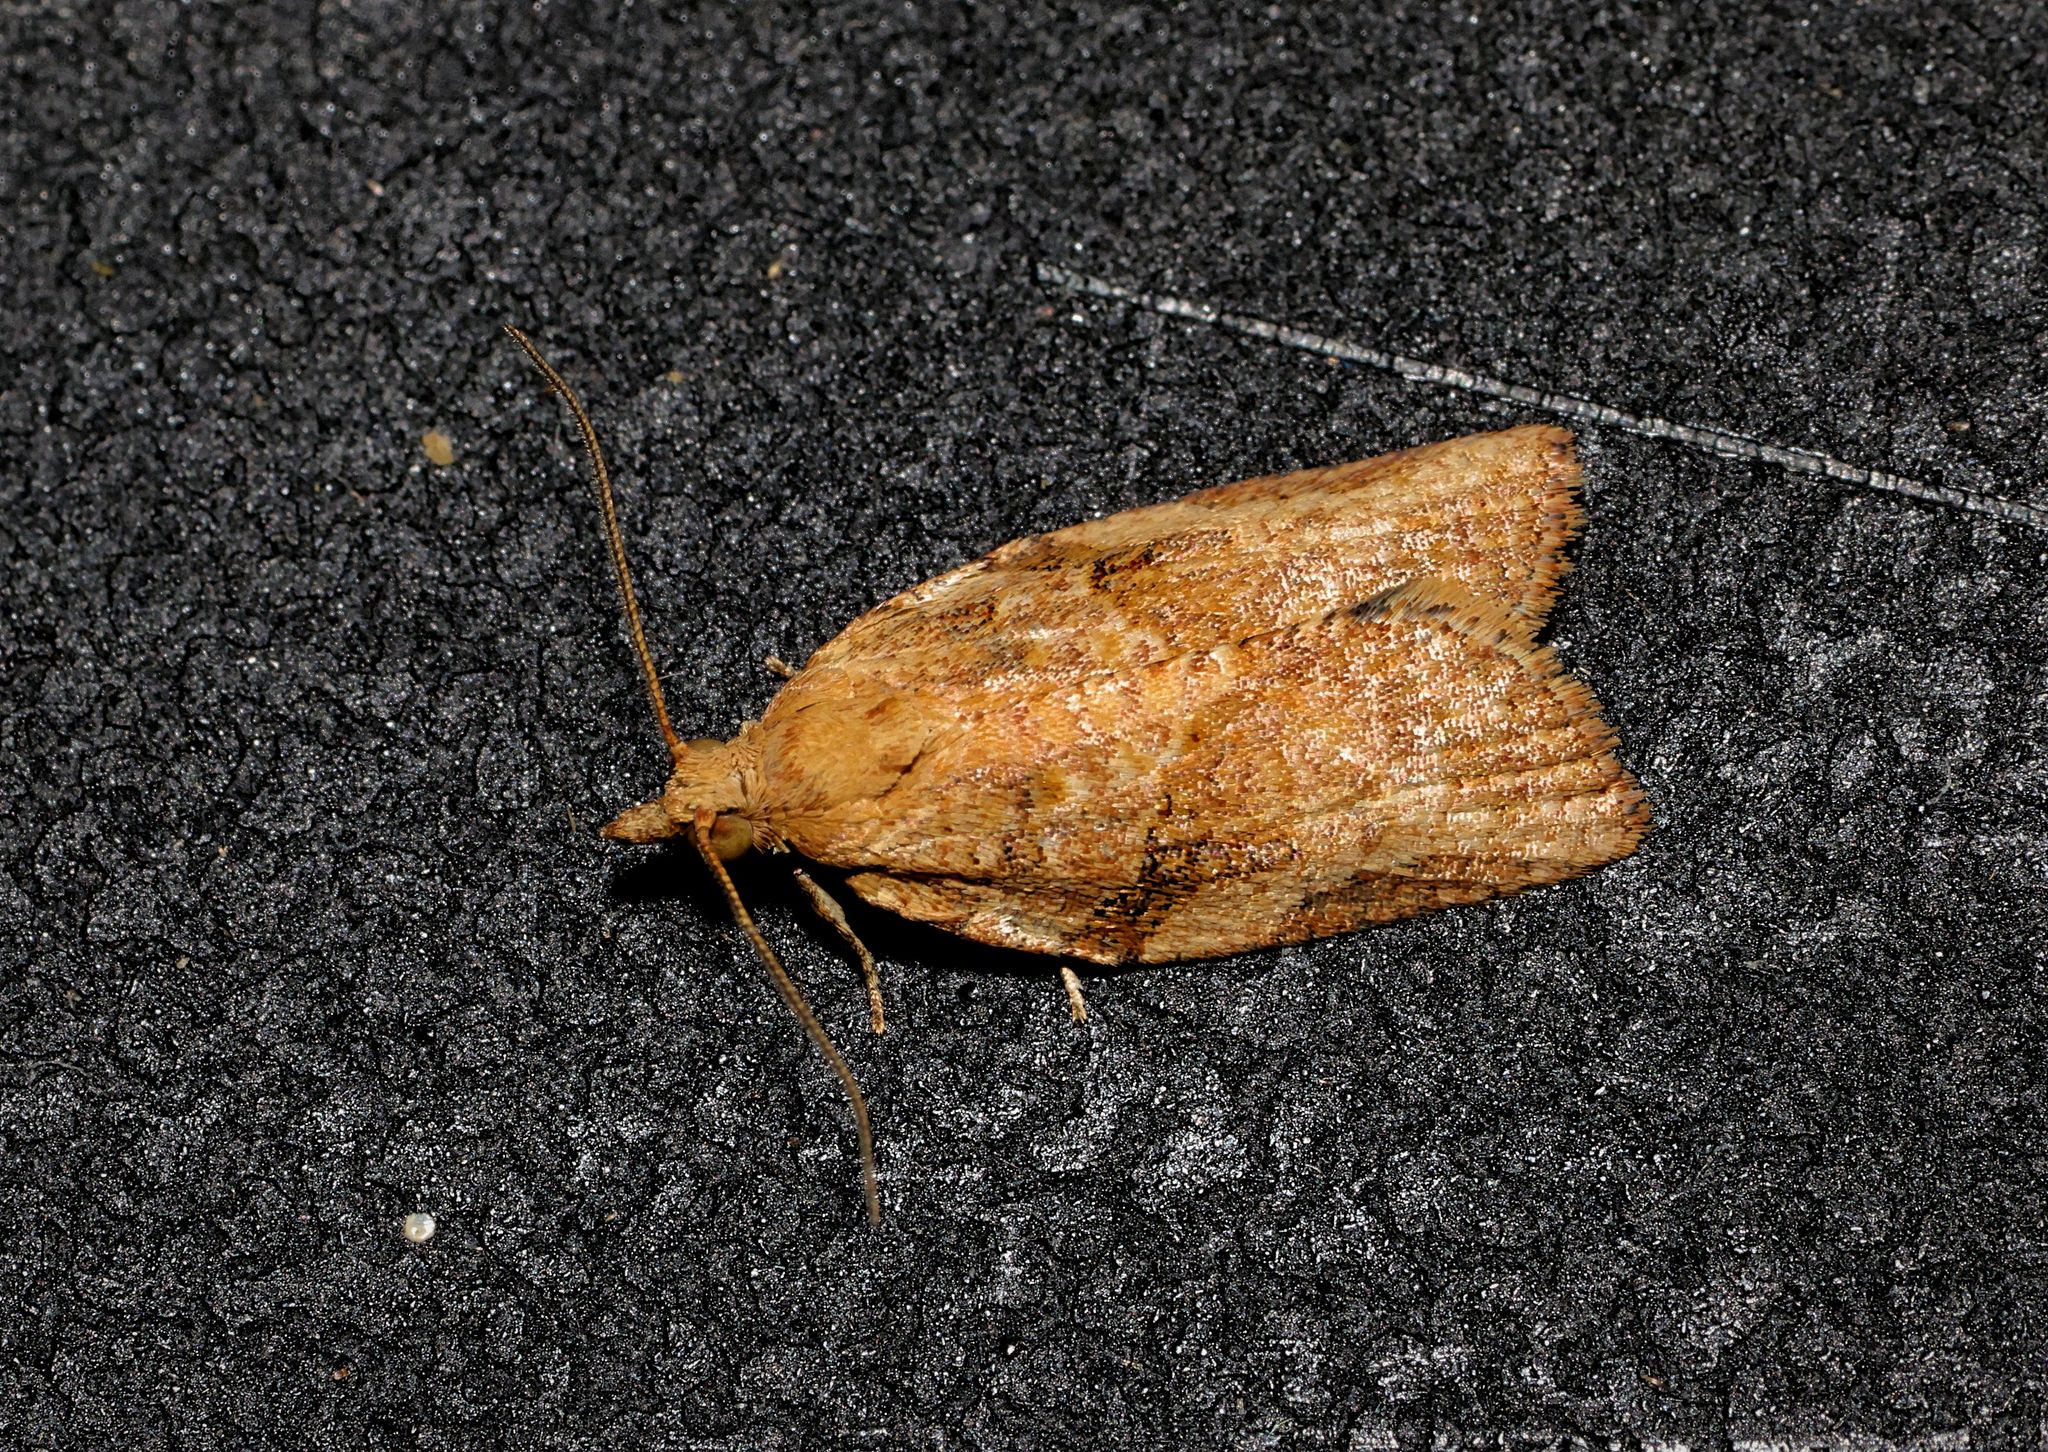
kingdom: Animalia
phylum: Arthropoda
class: Insecta
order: Lepidoptera
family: Tortricidae
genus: Epiphyas
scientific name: Epiphyas postvittana
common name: Light brown apple moth
